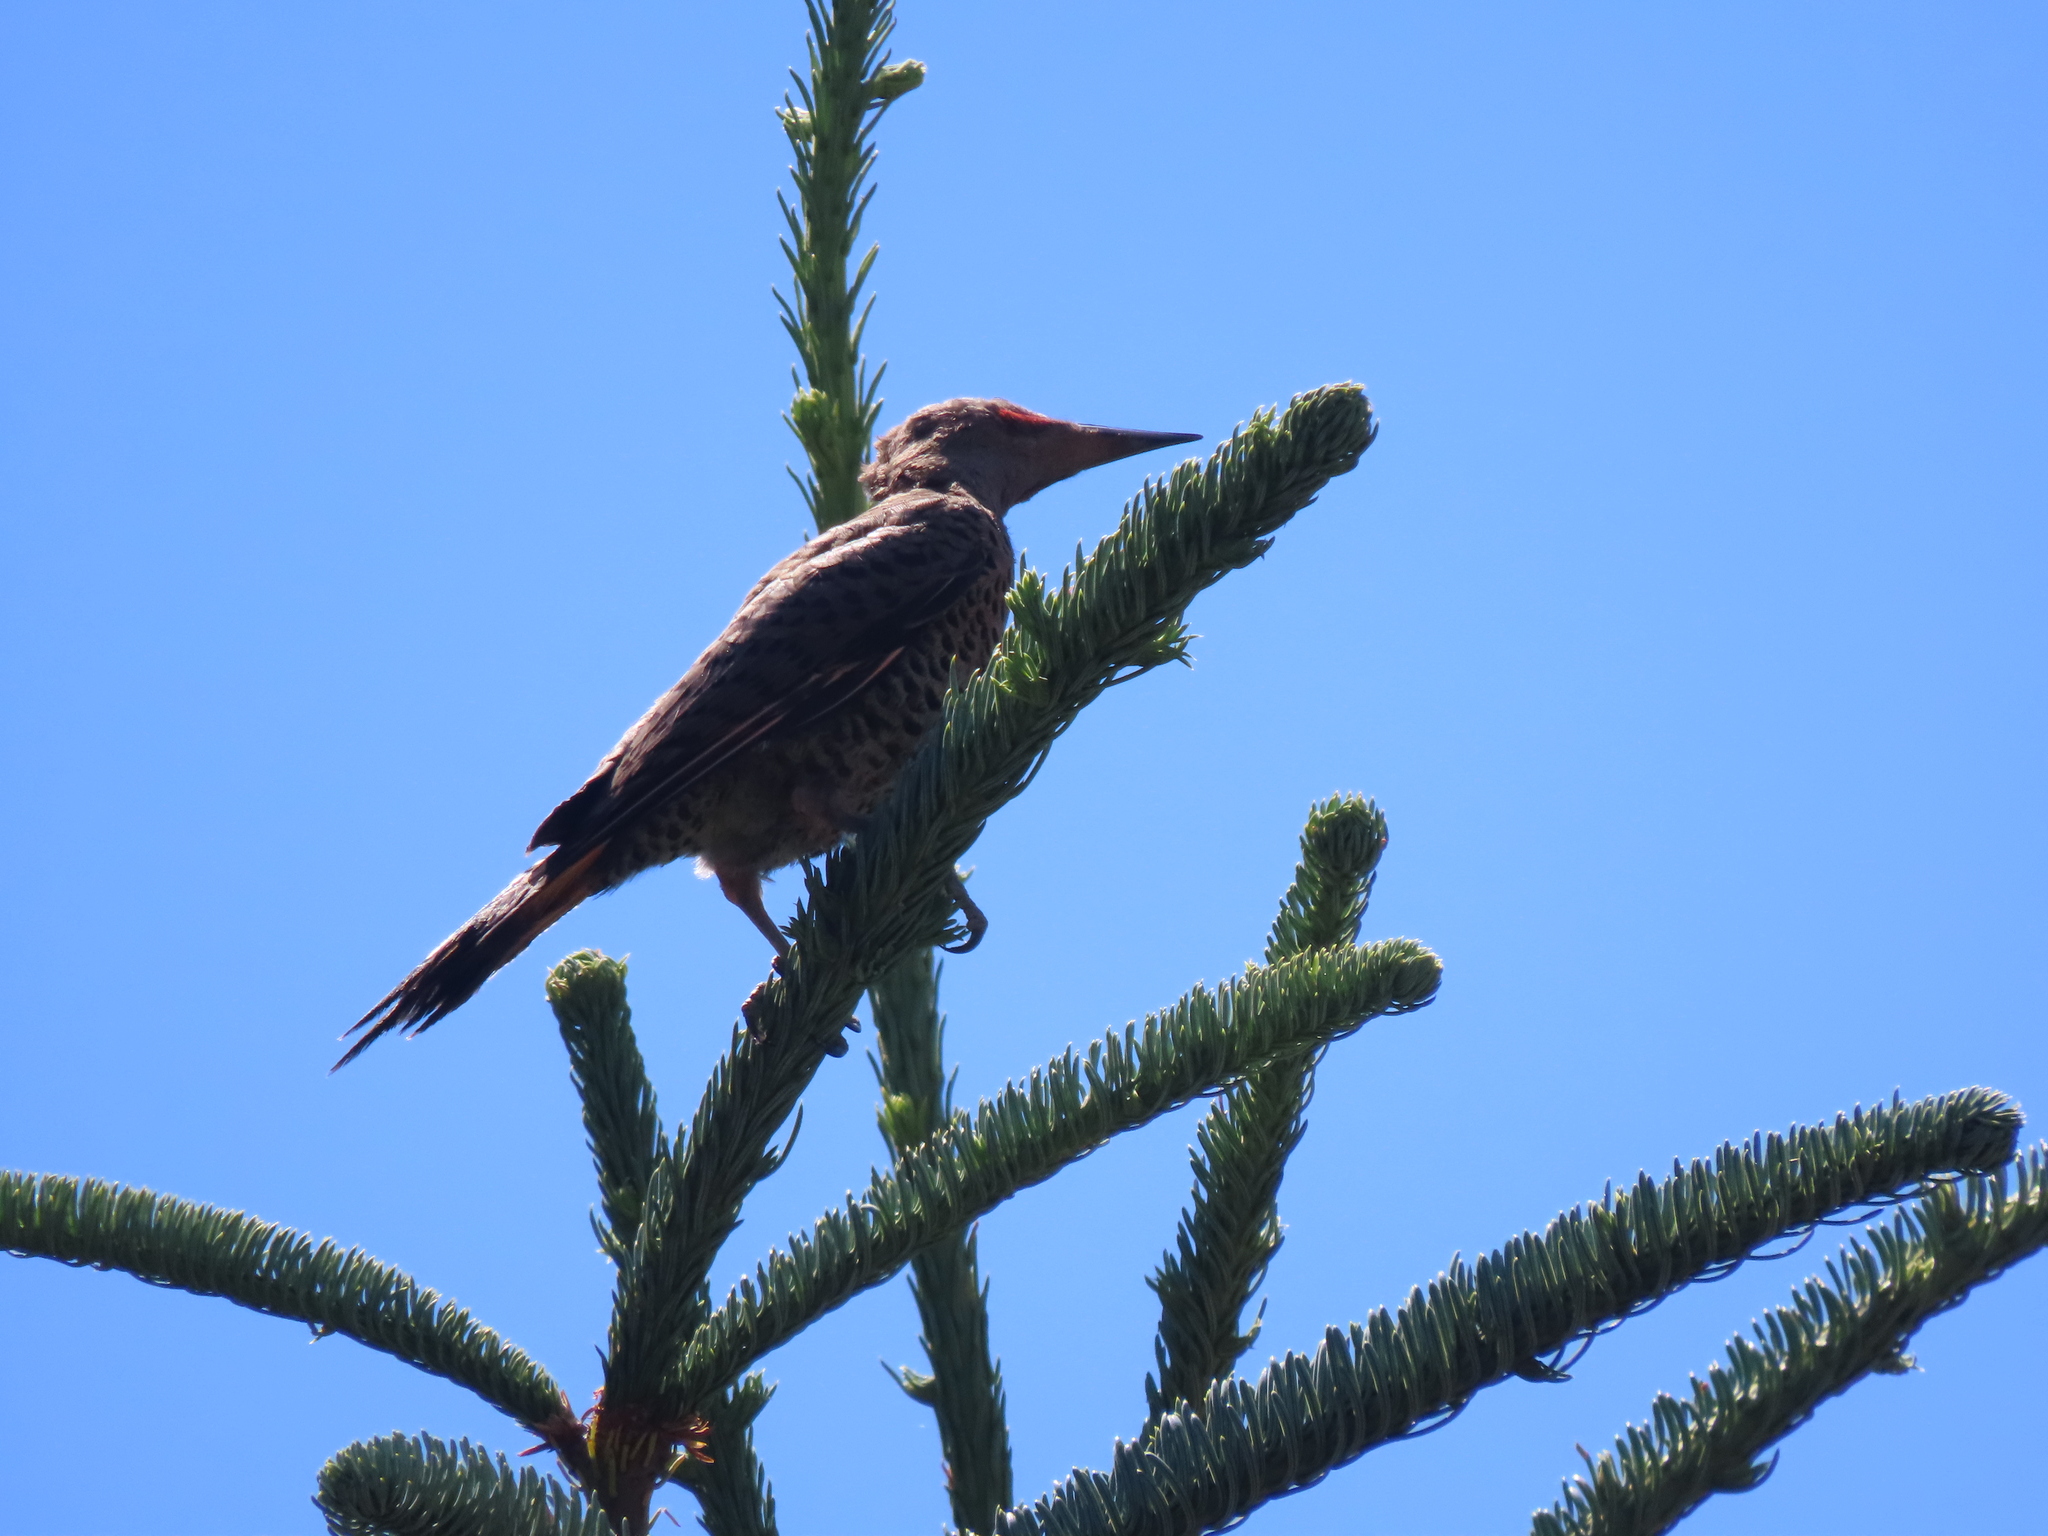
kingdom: Animalia
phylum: Chordata
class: Aves
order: Piciformes
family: Picidae
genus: Colaptes
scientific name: Colaptes auratus
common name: Northern flicker
